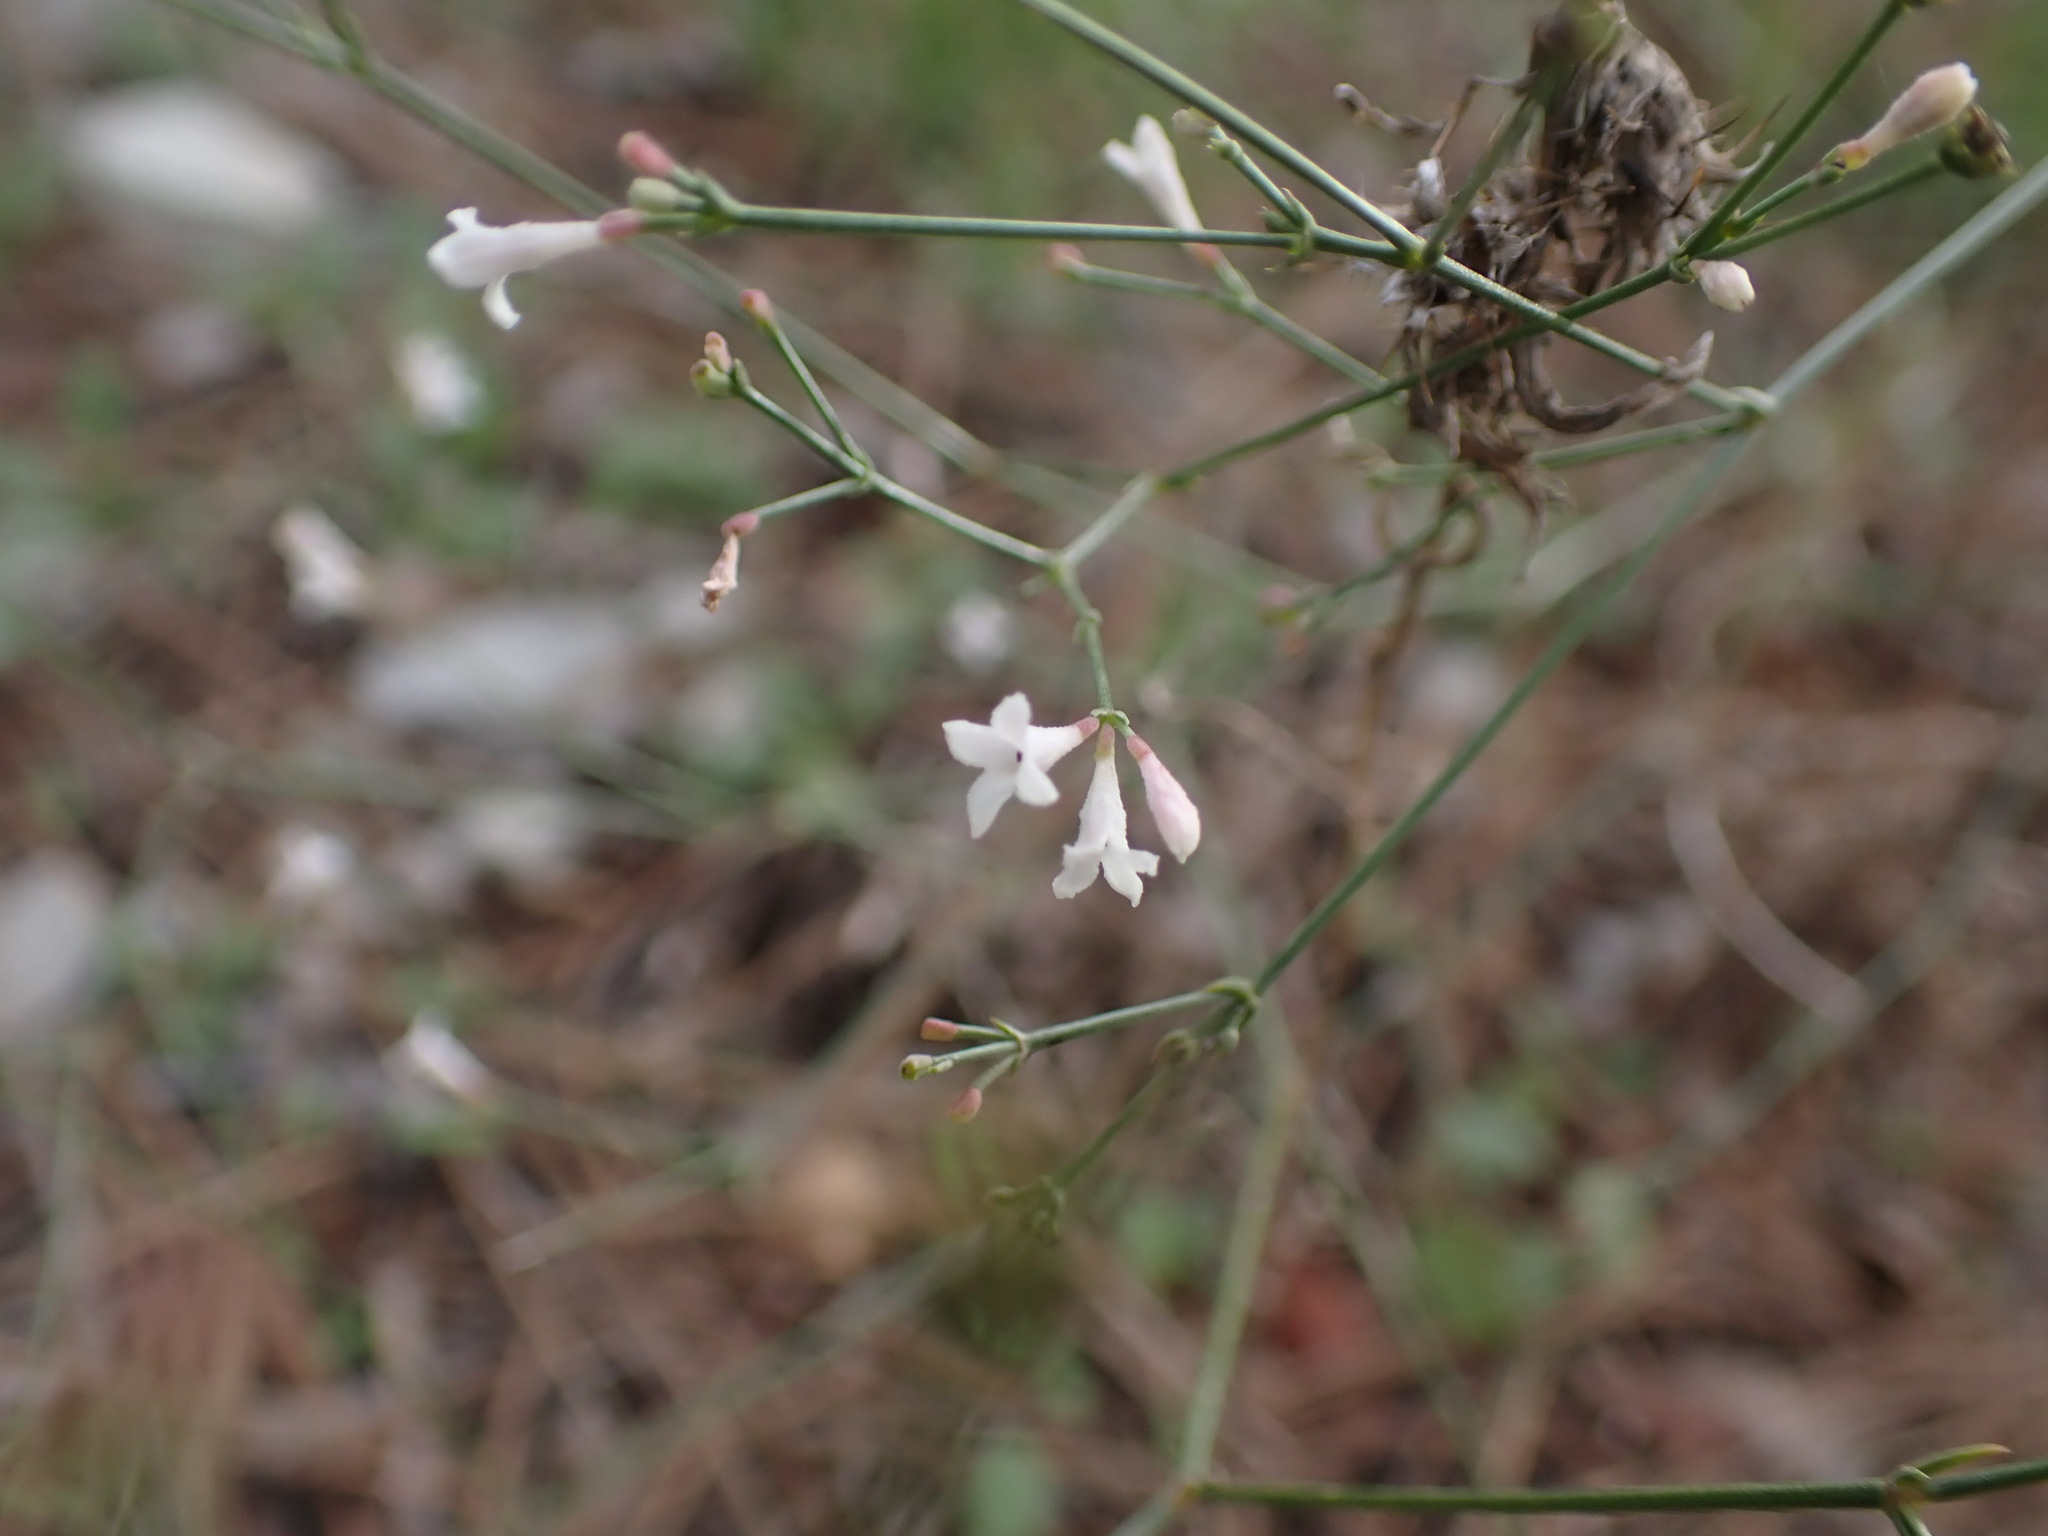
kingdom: Plantae
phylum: Tracheophyta
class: Magnoliopsida
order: Gentianales
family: Rubiaceae
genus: Cynanchica
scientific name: Cynanchica pyrenaica
